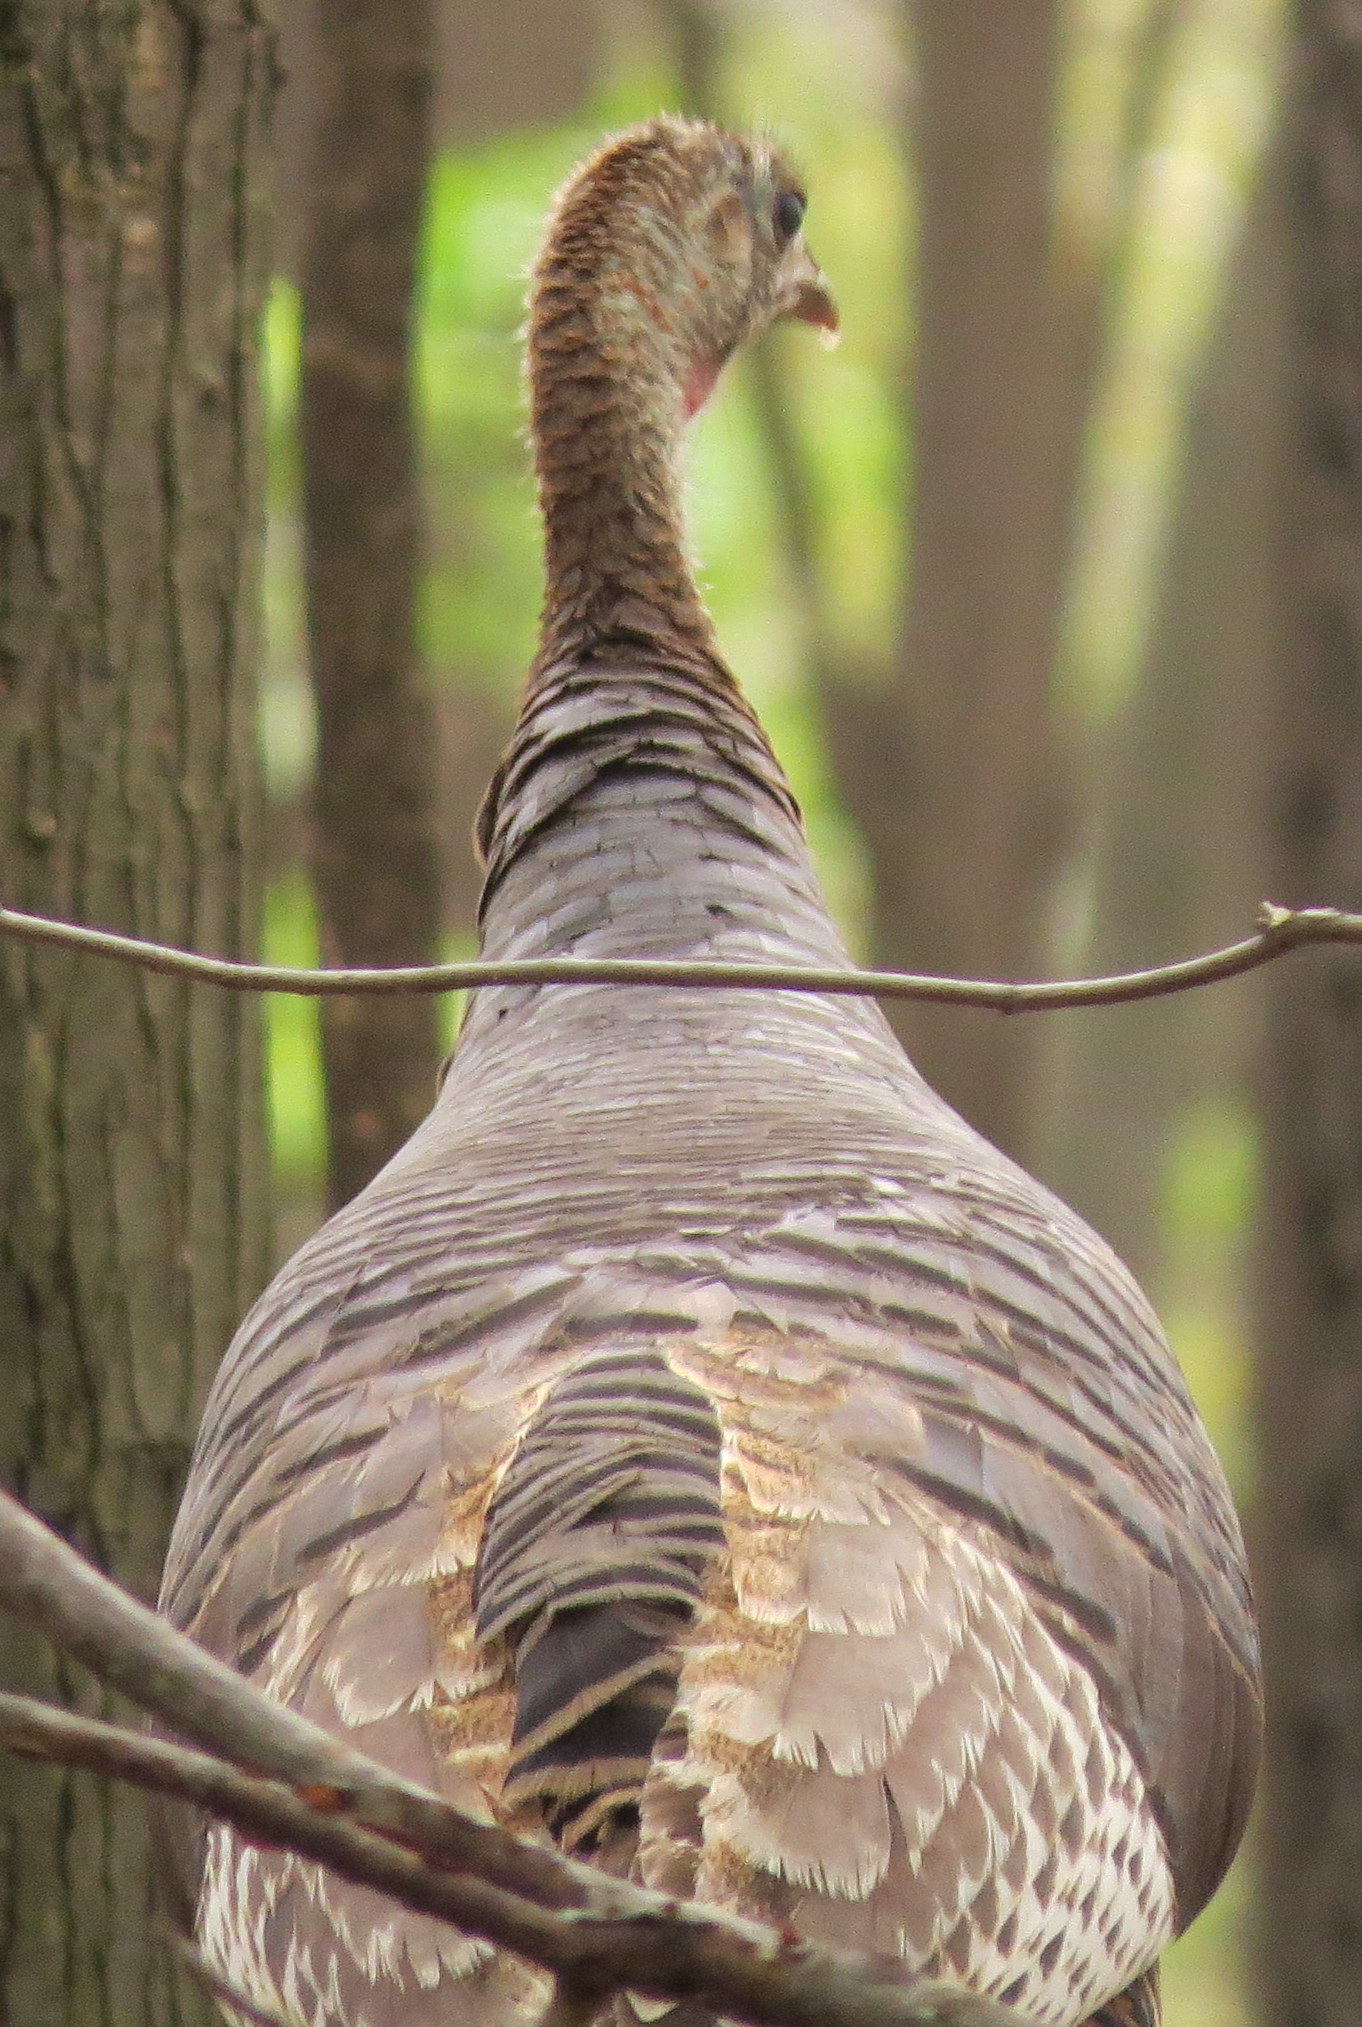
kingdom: Animalia
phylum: Chordata
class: Aves
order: Galliformes
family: Phasianidae
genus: Meleagris
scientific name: Meleagris gallopavo
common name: Wild turkey
